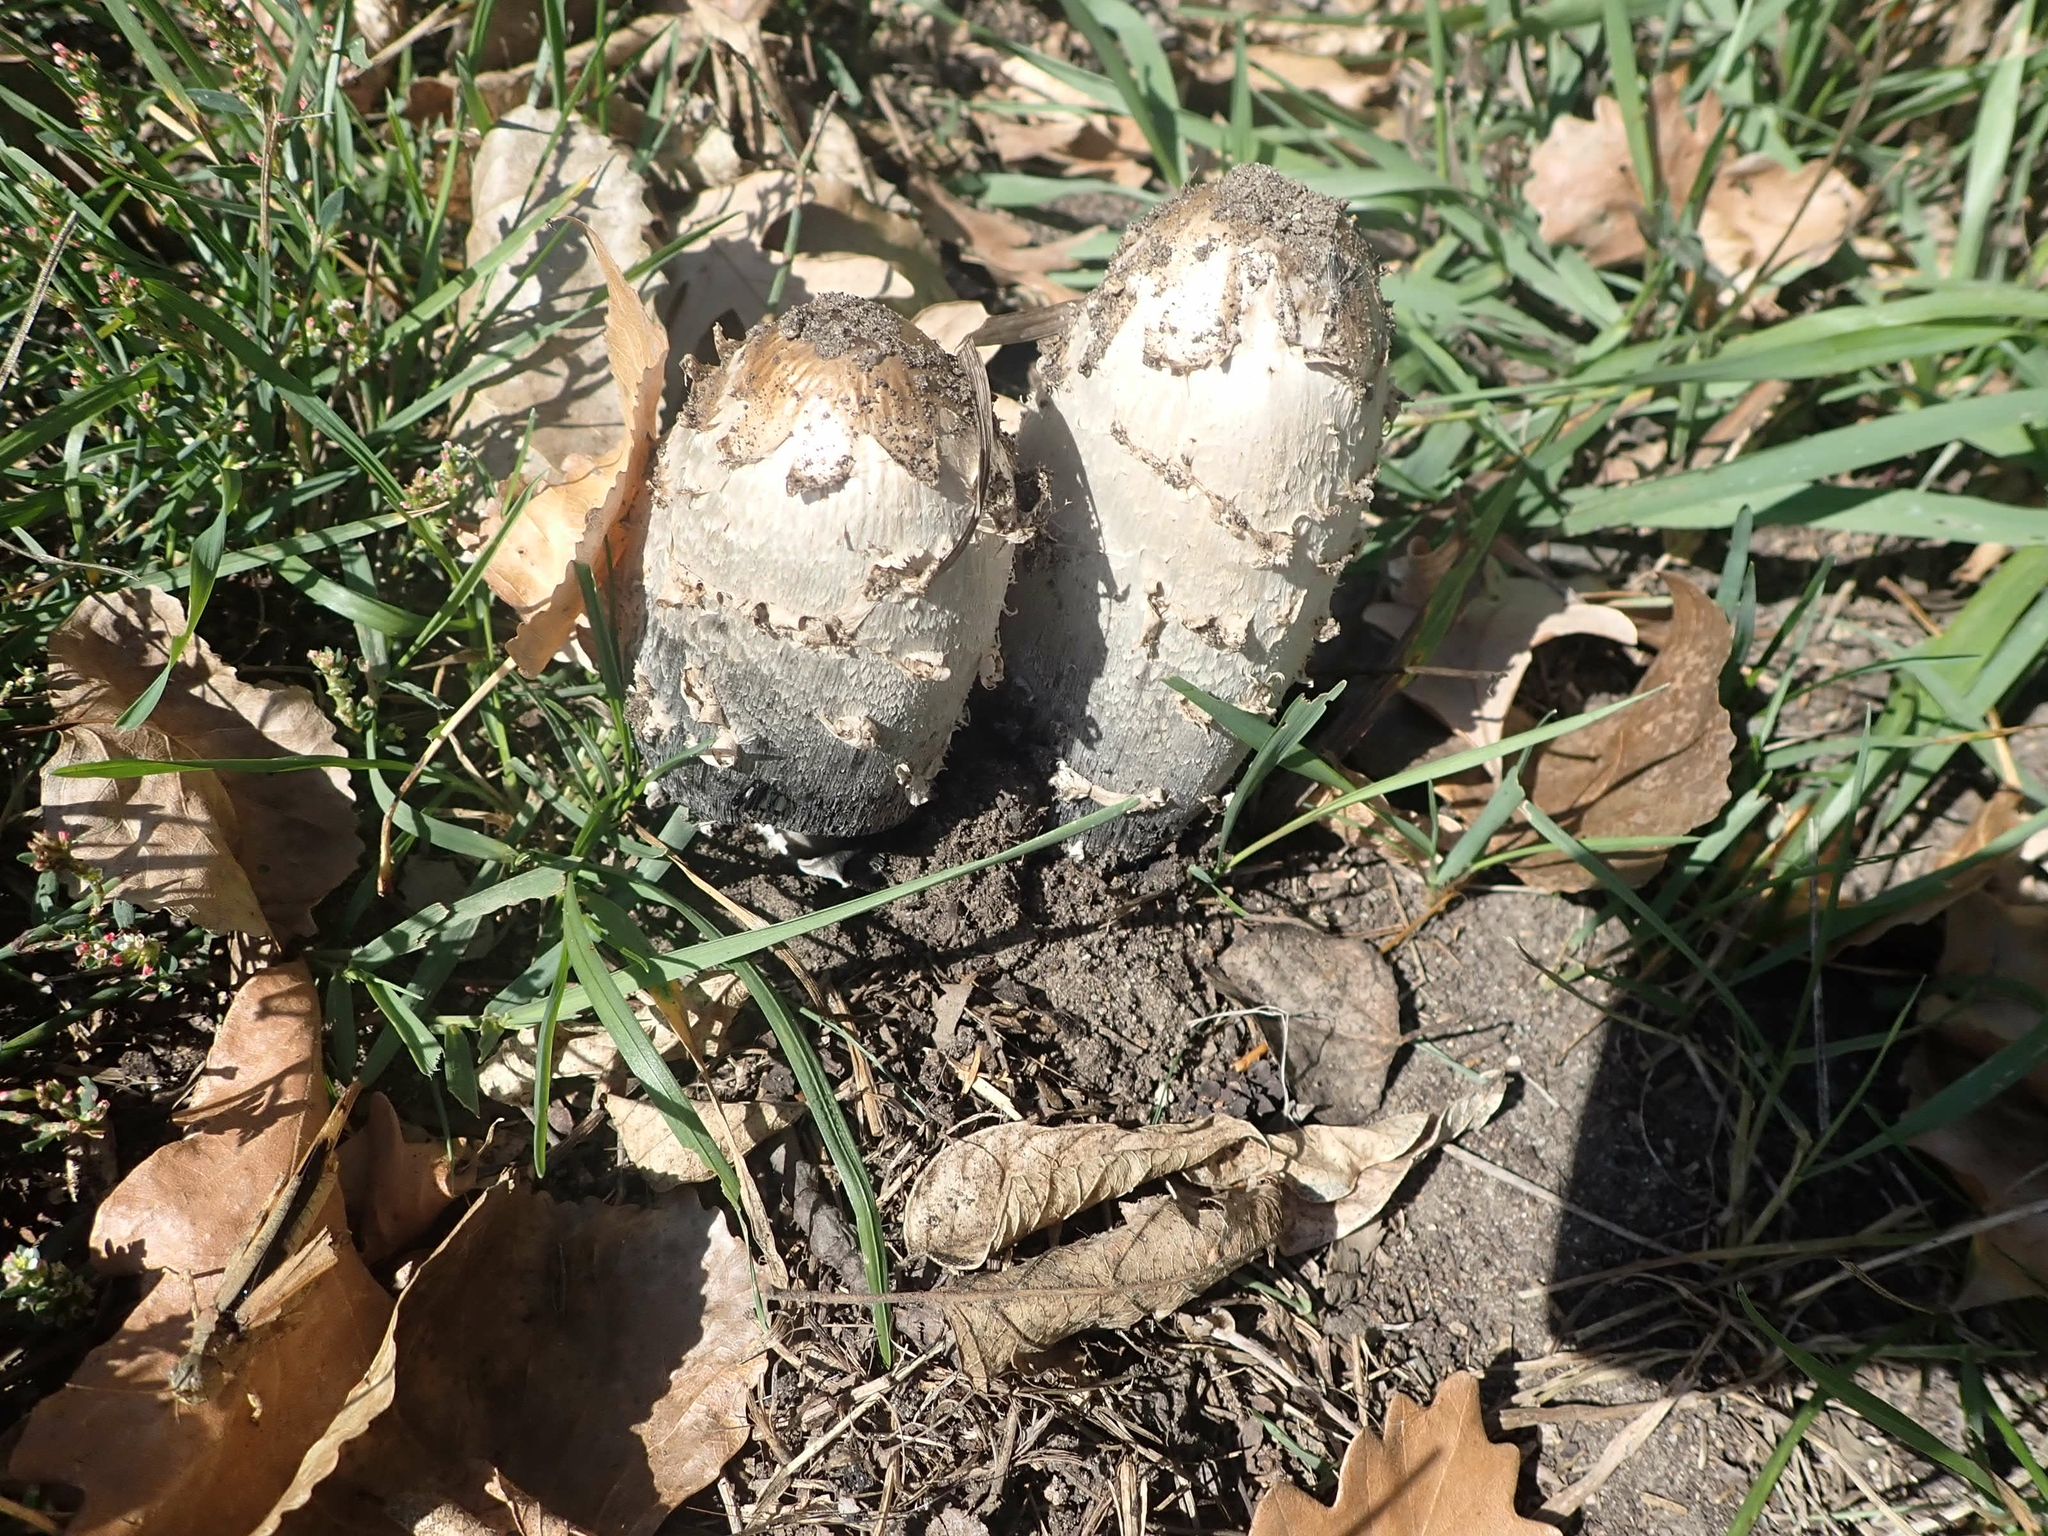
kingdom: Fungi
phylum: Basidiomycota
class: Agaricomycetes
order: Agaricales
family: Agaricaceae
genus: Coprinus
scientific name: Coprinus comatus
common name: Lawyer's wig
